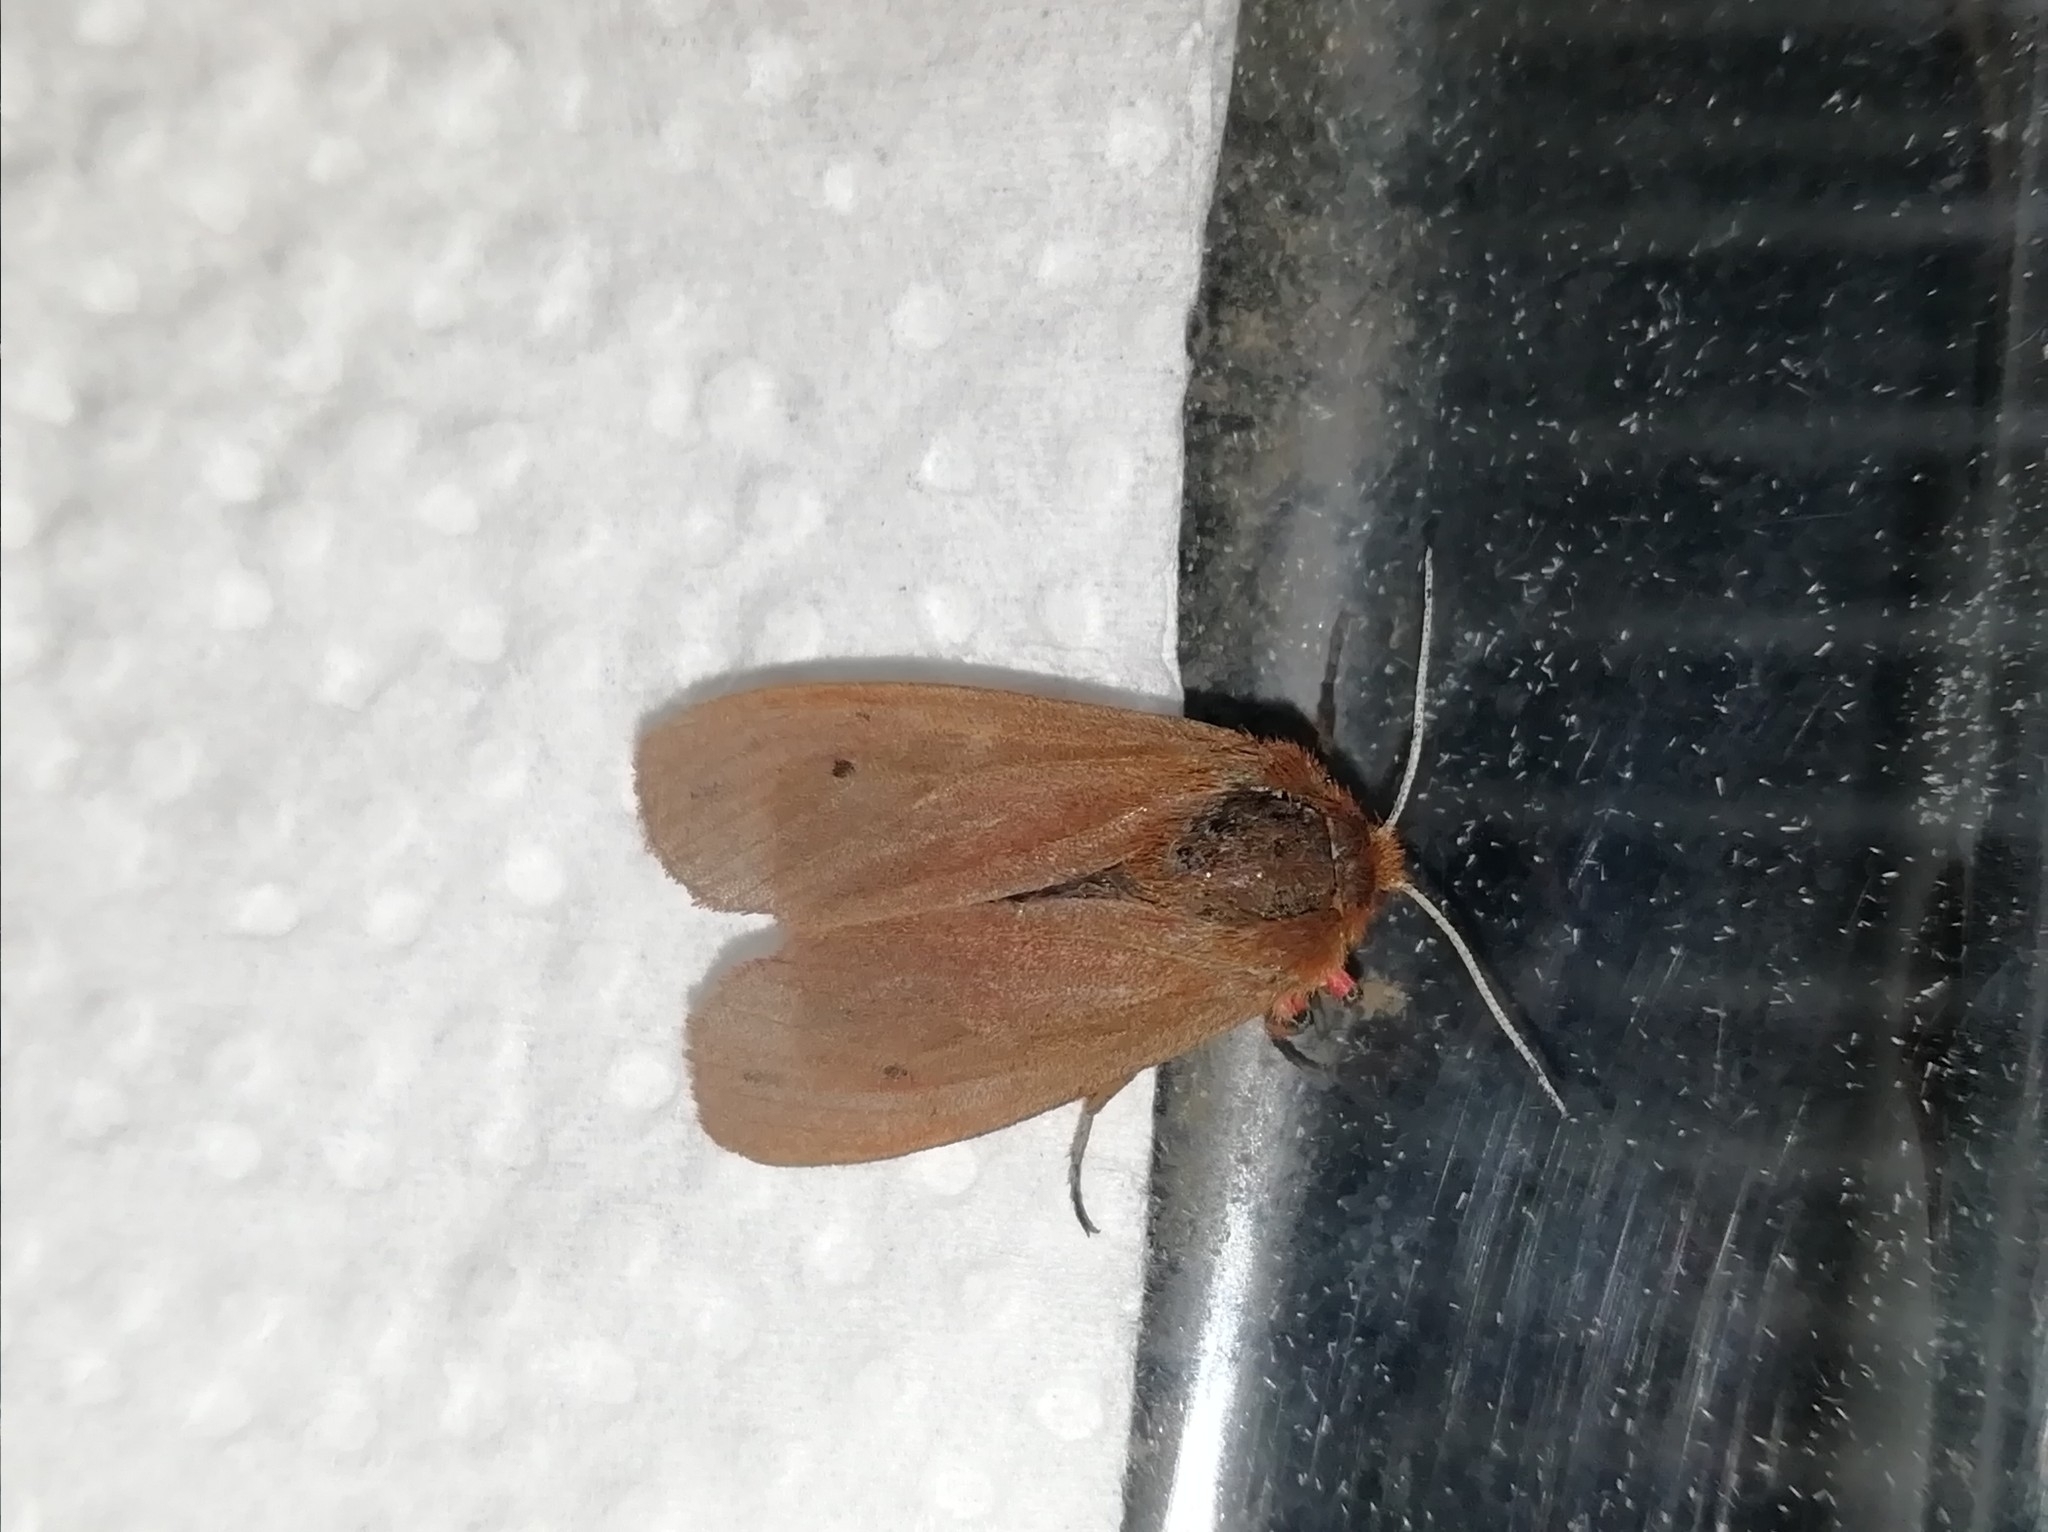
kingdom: Animalia
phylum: Arthropoda
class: Insecta
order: Lepidoptera
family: Erebidae
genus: Phragmatobia
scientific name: Phragmatobia fuliginosa
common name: Ruby tiger
